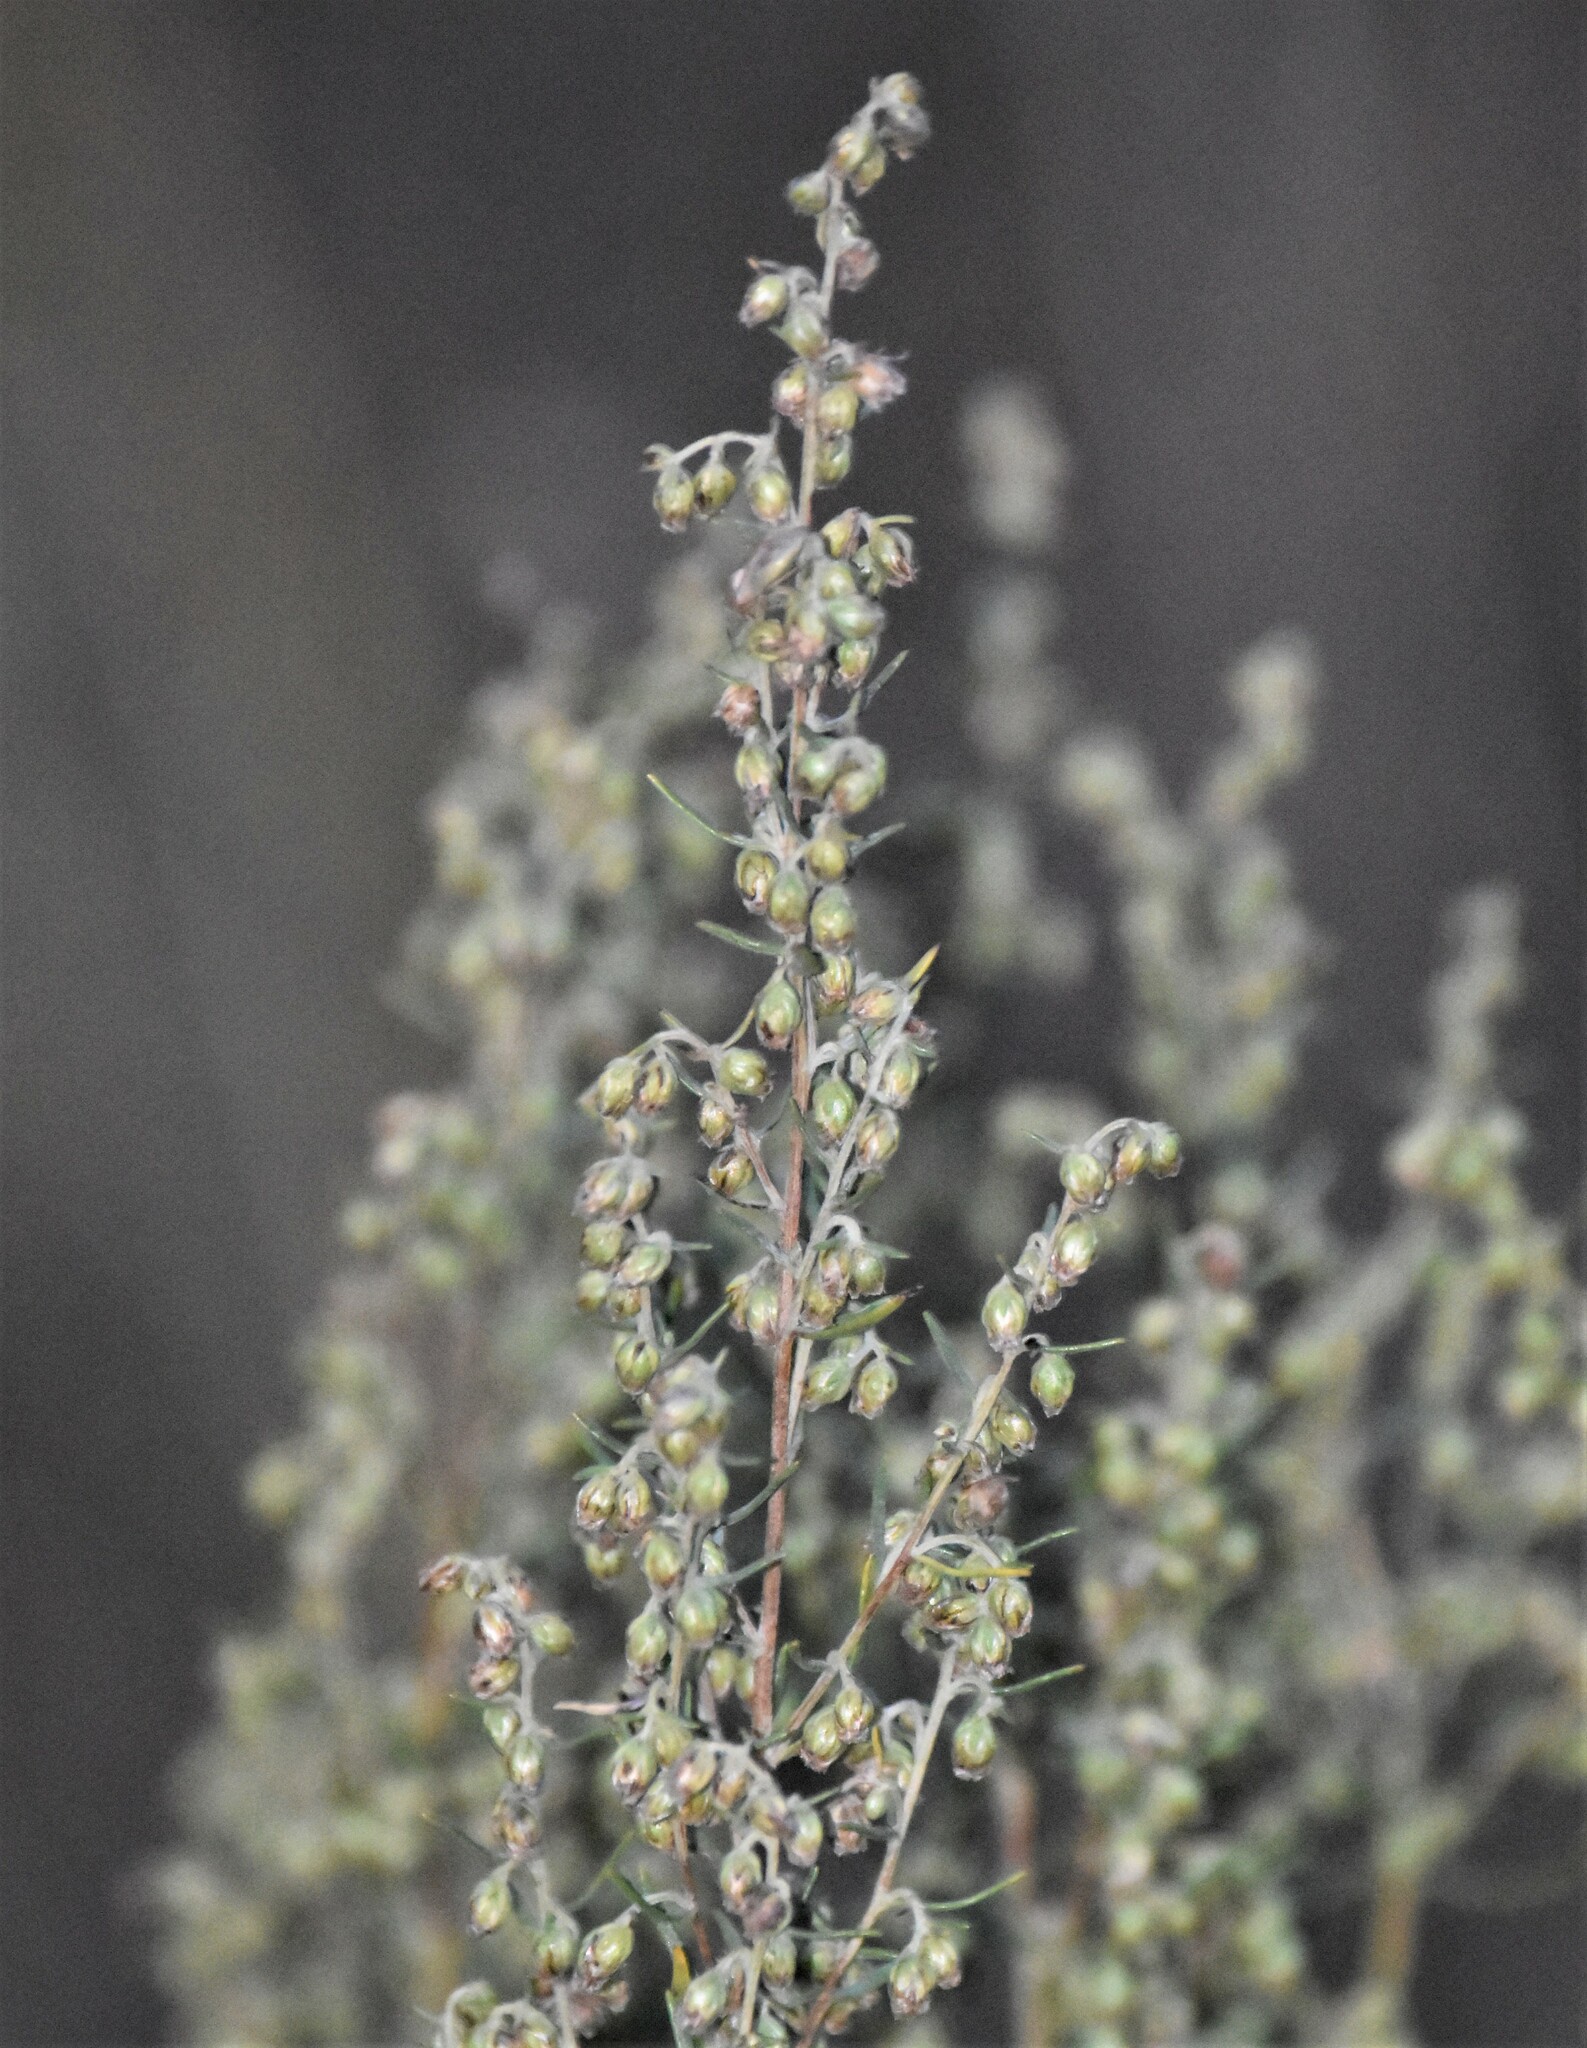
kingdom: Plantae
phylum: Tracheophyta
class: Magnoliopsida
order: Asterales
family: Asteraceae
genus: Artemisia
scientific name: Artemisia dracunculus
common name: Tarragon
